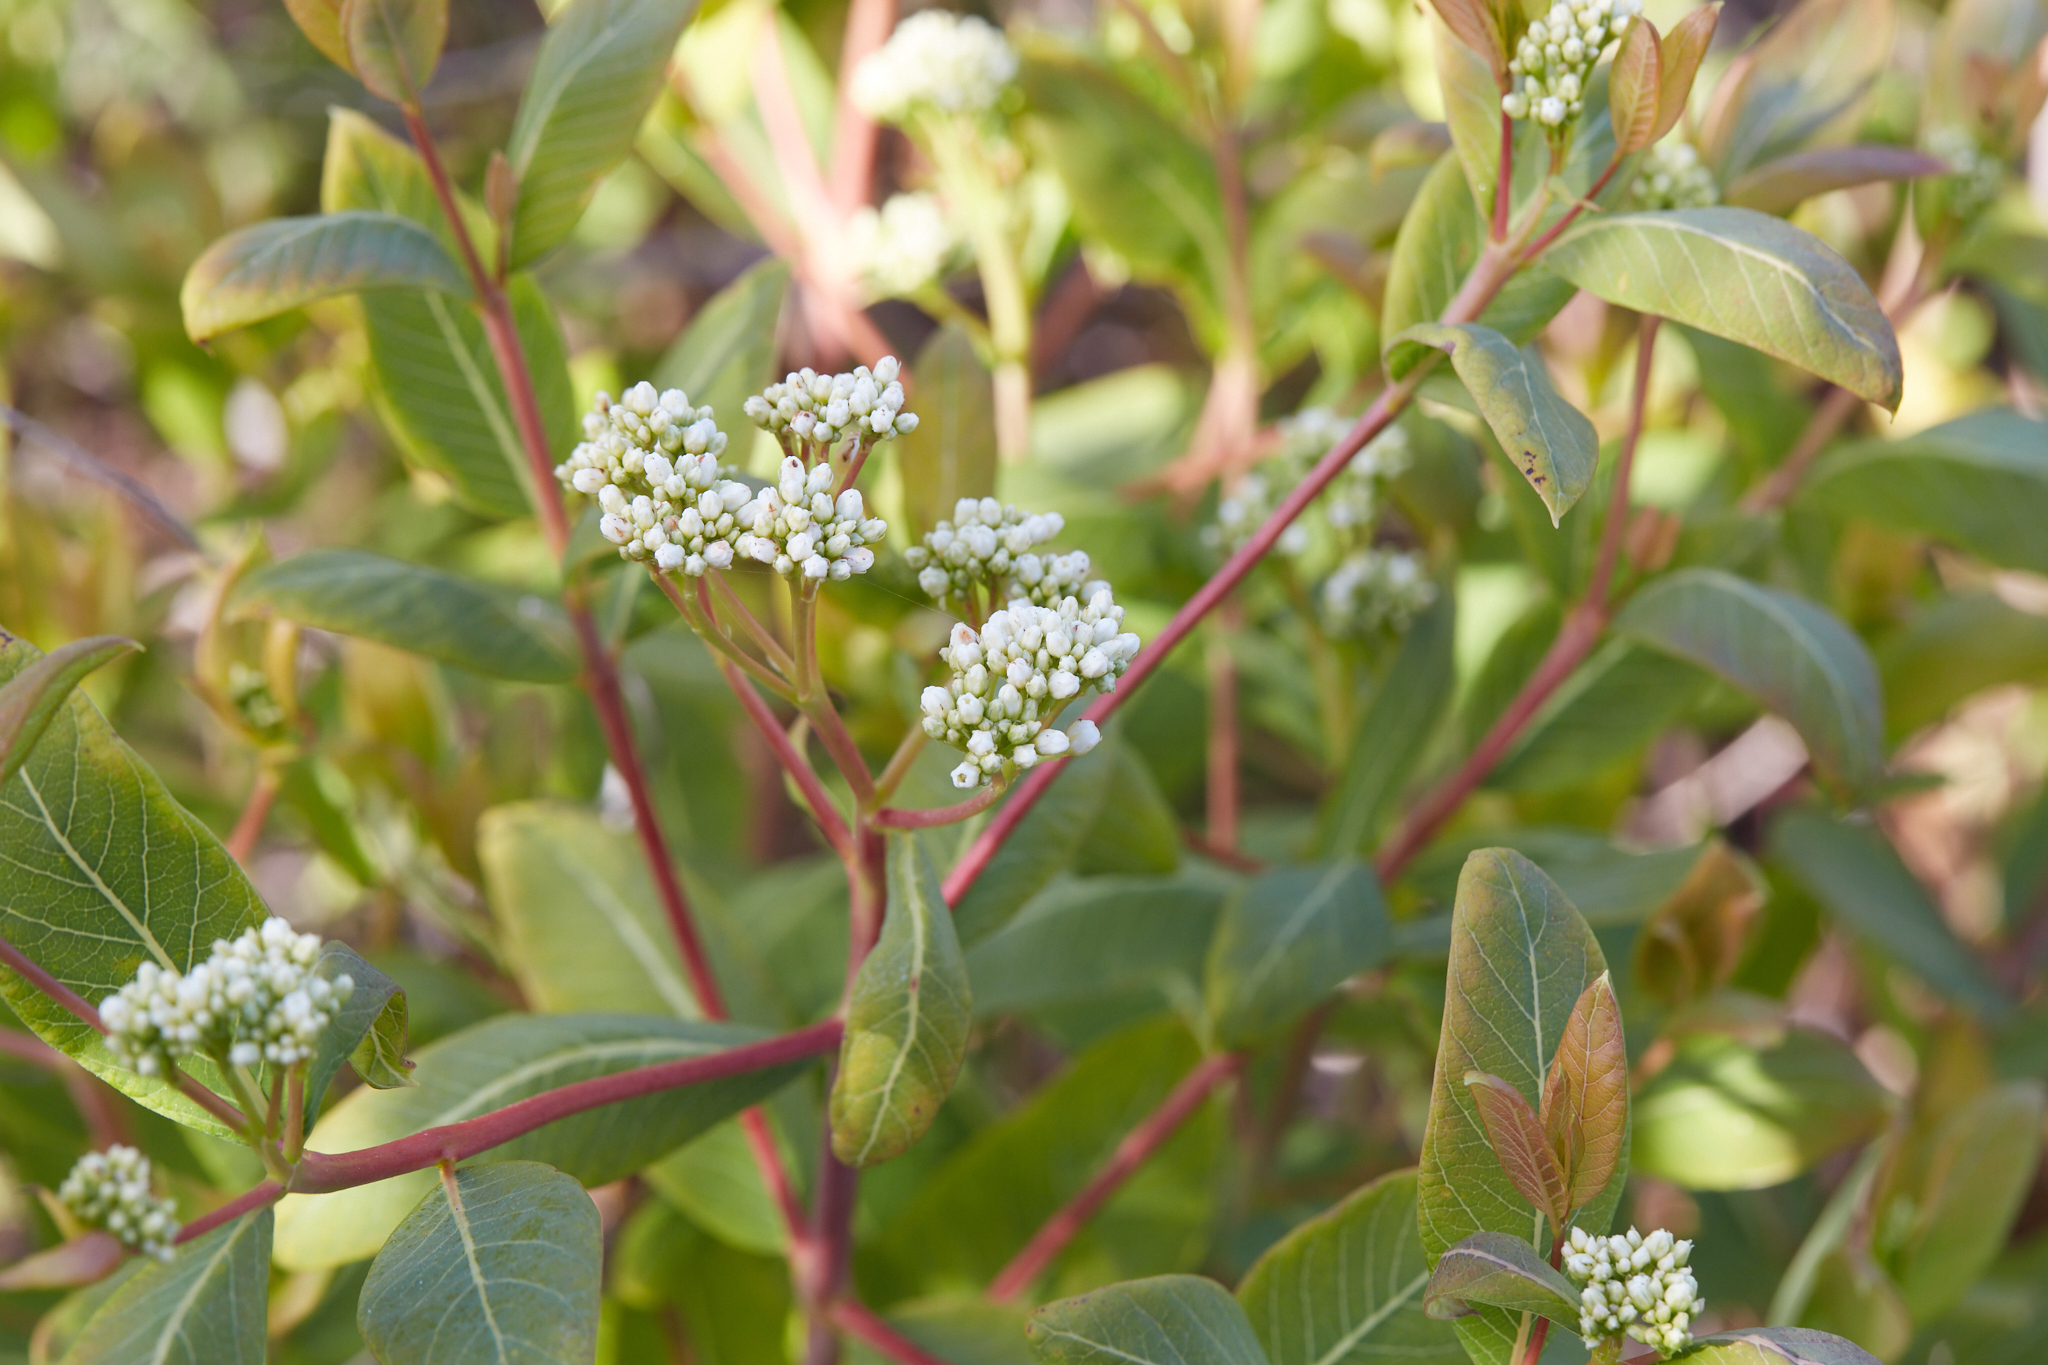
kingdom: Plantae
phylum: Tracheophyta
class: Magnoliopsida
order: Gentianales
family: Apocynaceae
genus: Apocynum
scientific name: Apocynum cannabinum
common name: Hemp dogbane
